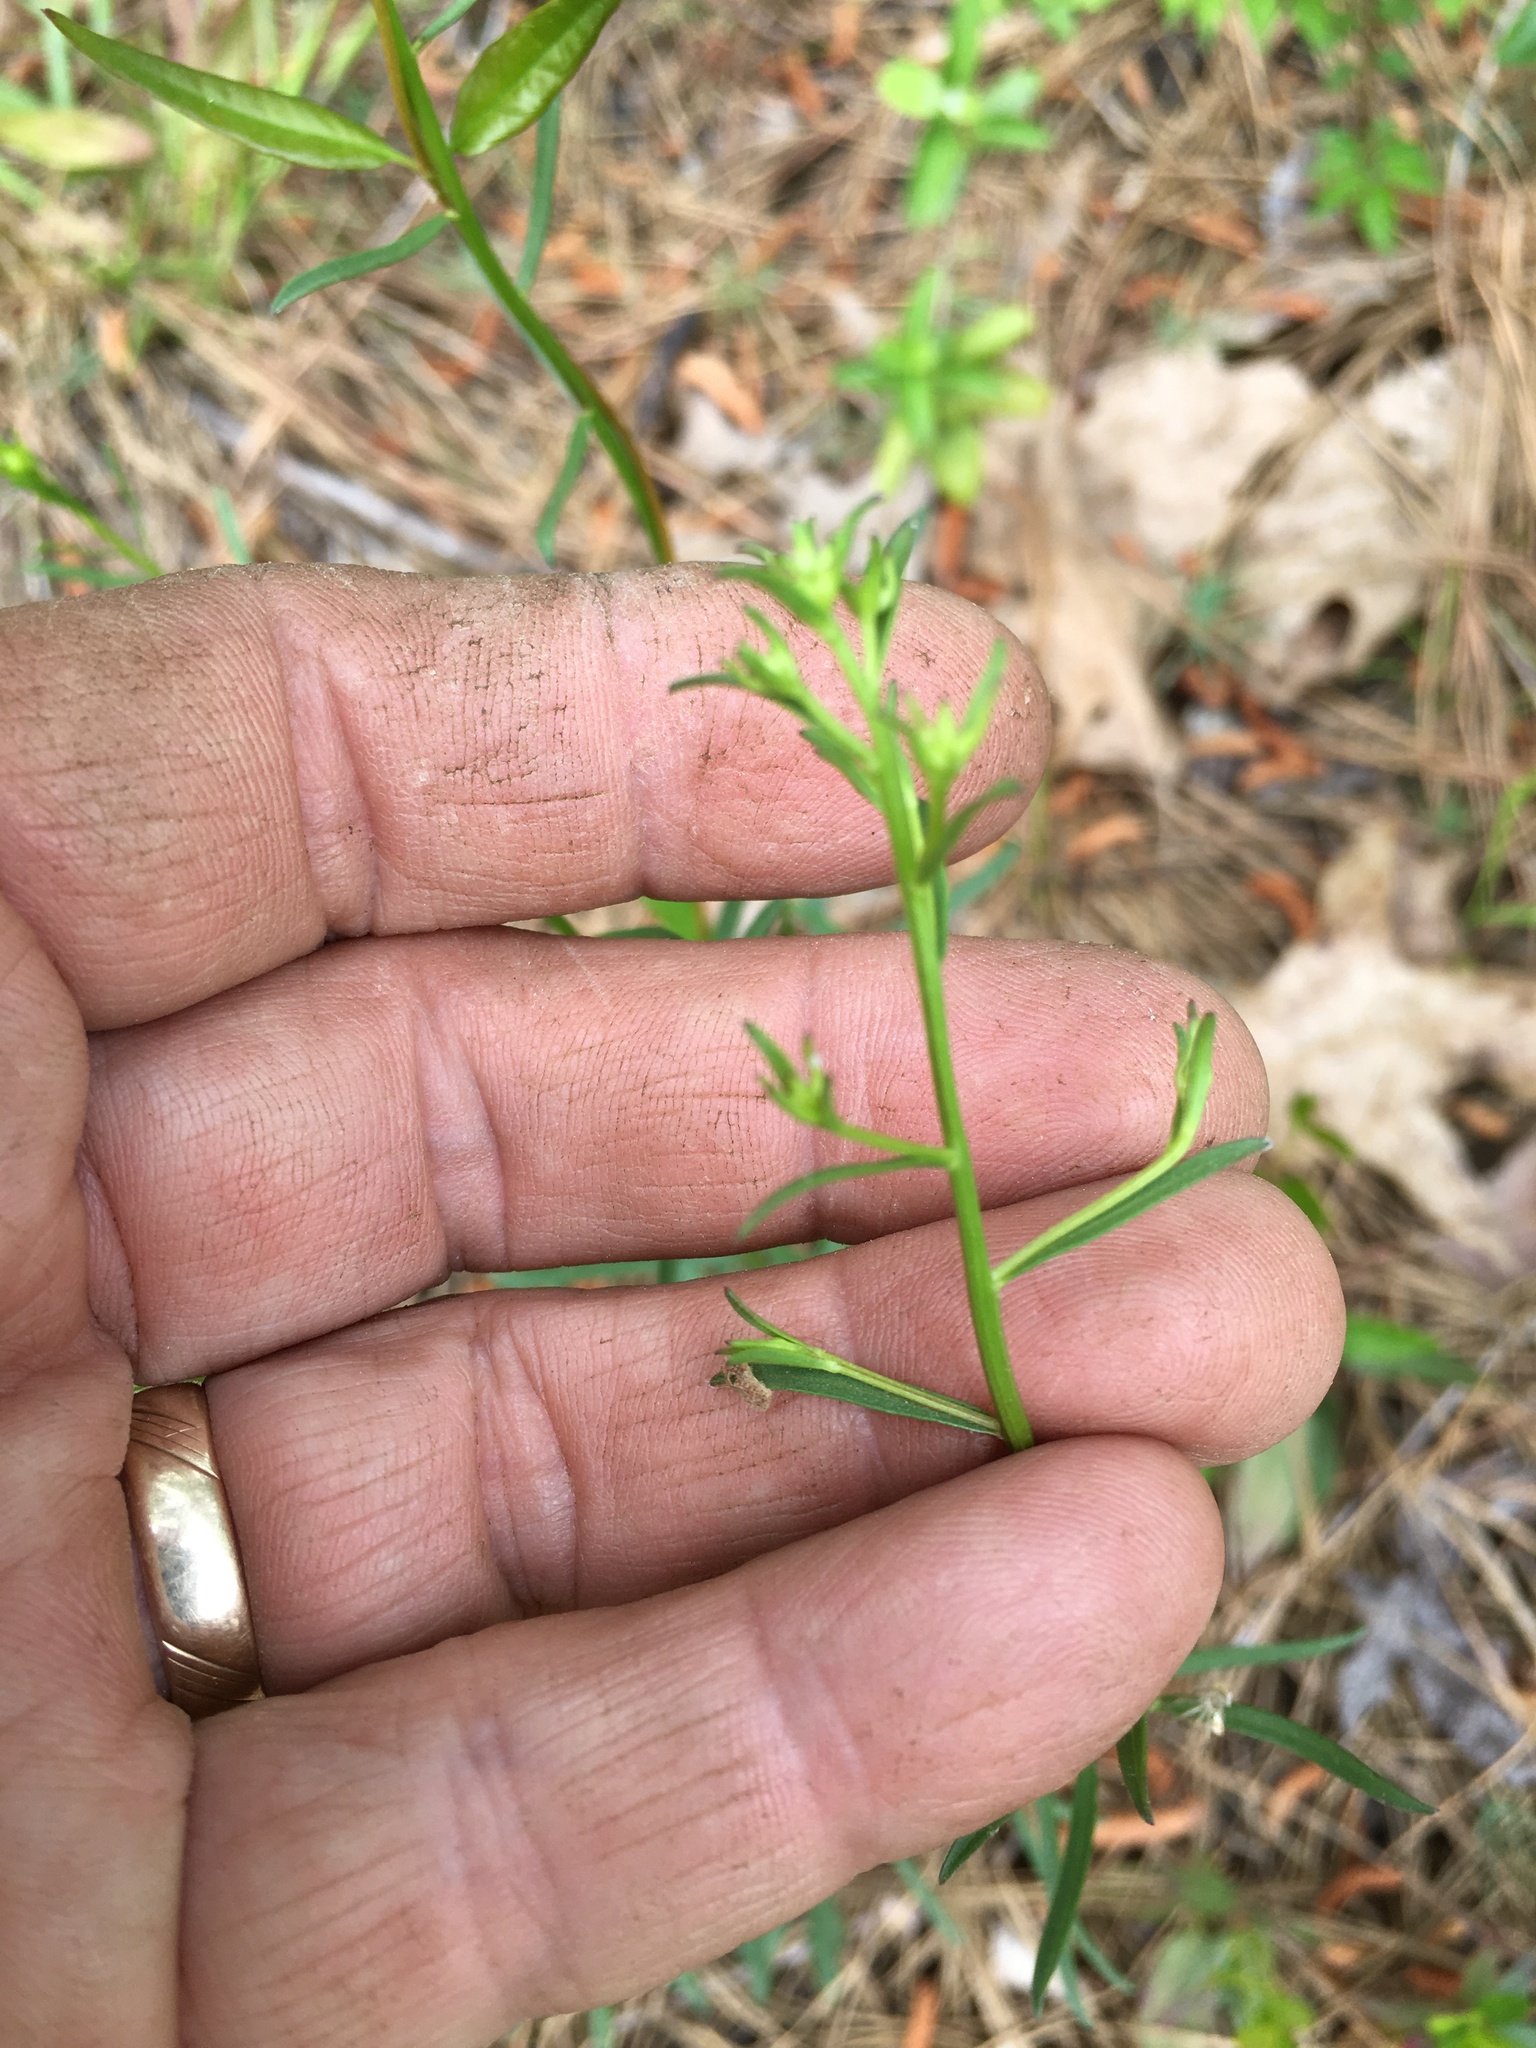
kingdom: Plantae
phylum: Tracheophyta
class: Magnoliopsida
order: Asterales
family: Asteraceae
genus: Sericocarpus
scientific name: Sericocarpus linifolius
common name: Narrow-leaf aster
